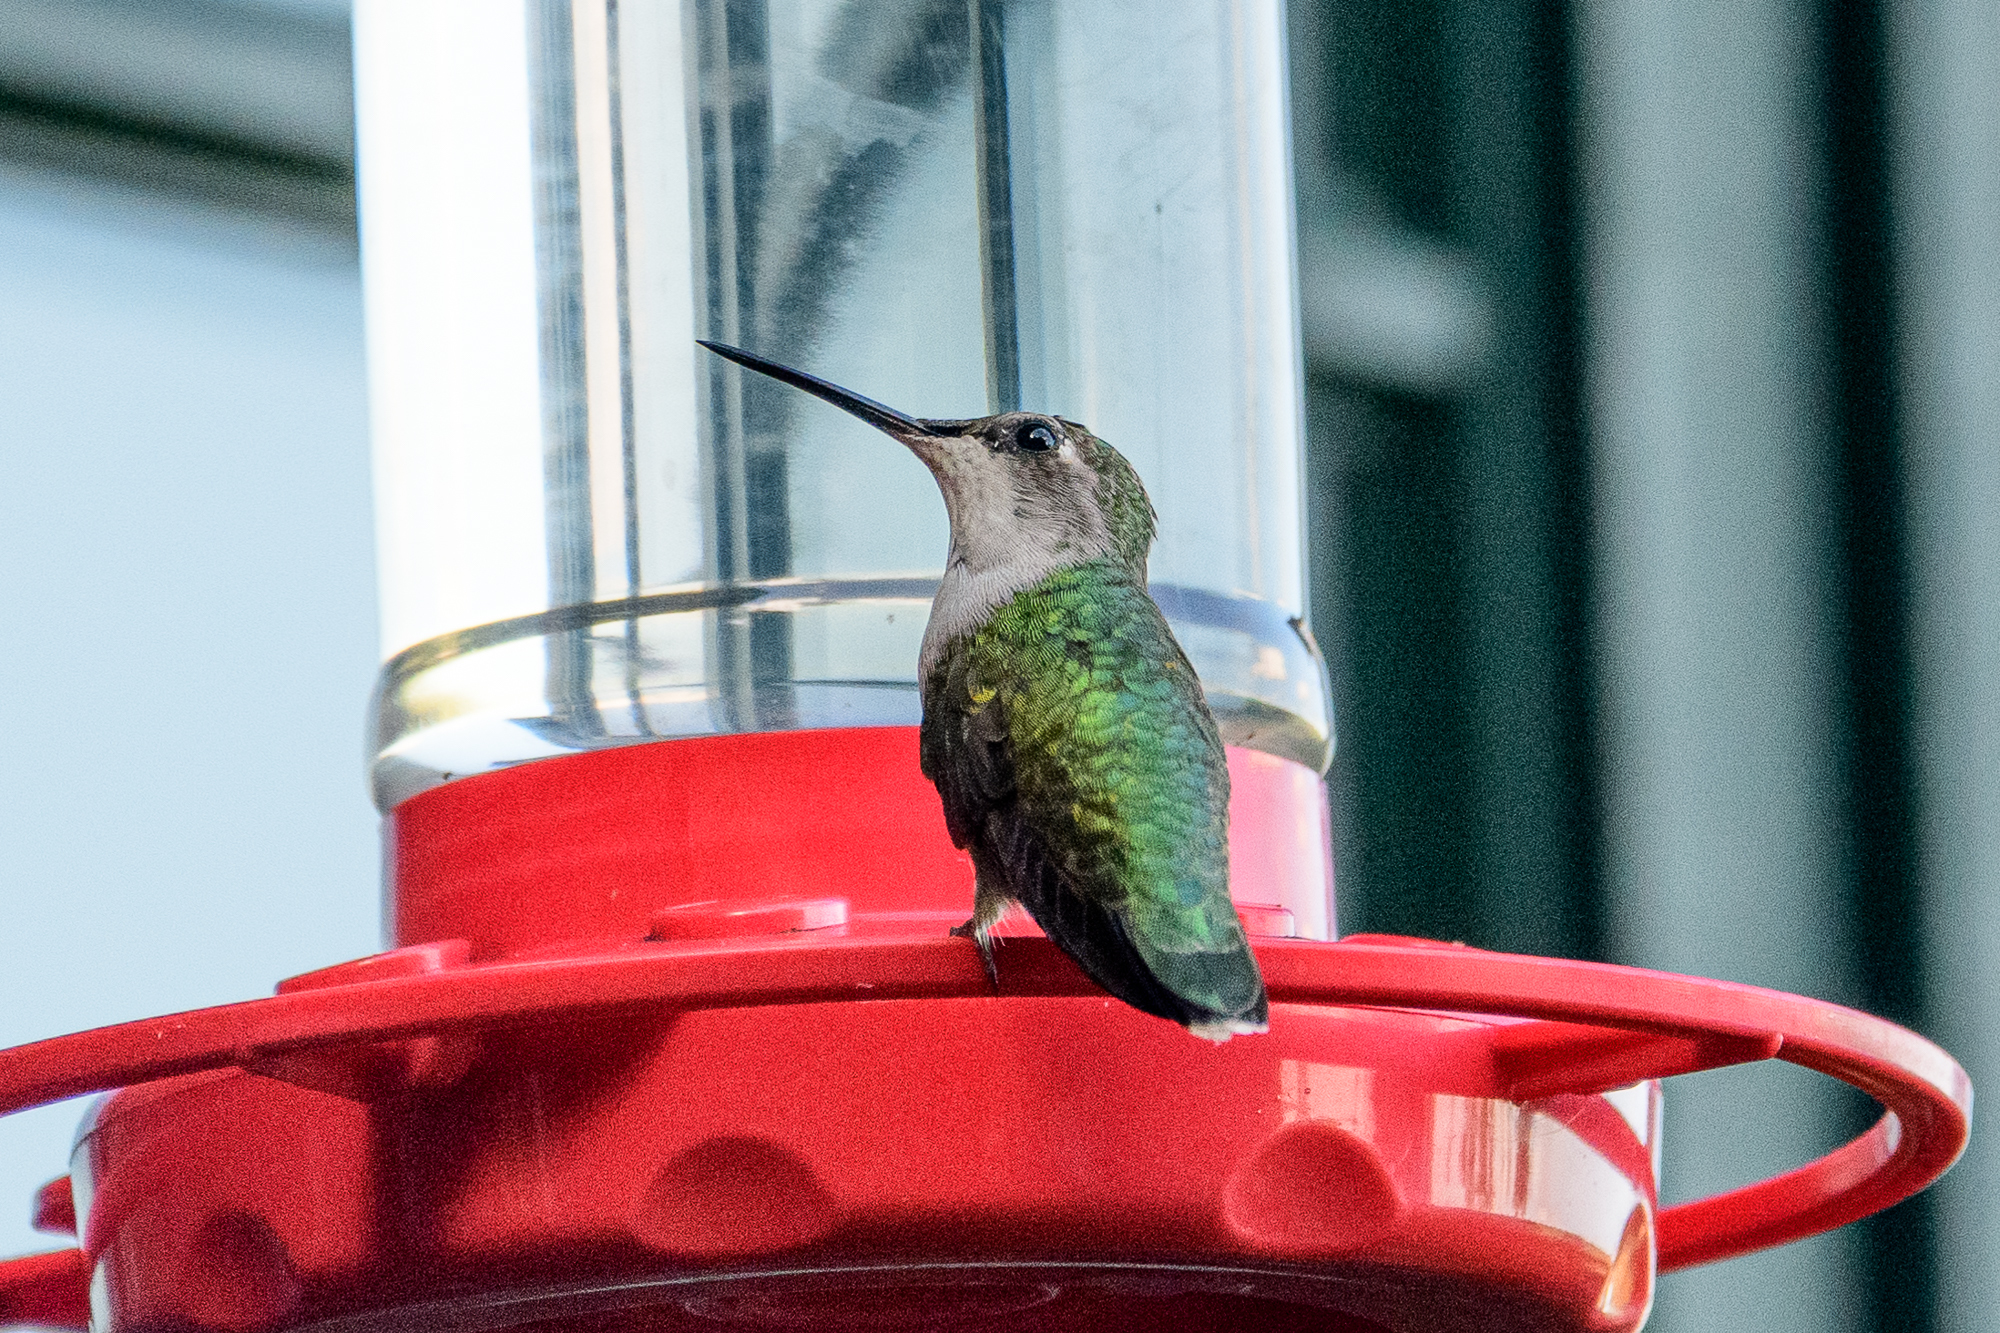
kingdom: Animalia
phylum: Chordata
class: Aves
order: Apodiformes
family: Trochilidae
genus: Archilochus
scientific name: Archilochus colubris
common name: Ruby-throated hummingbird
